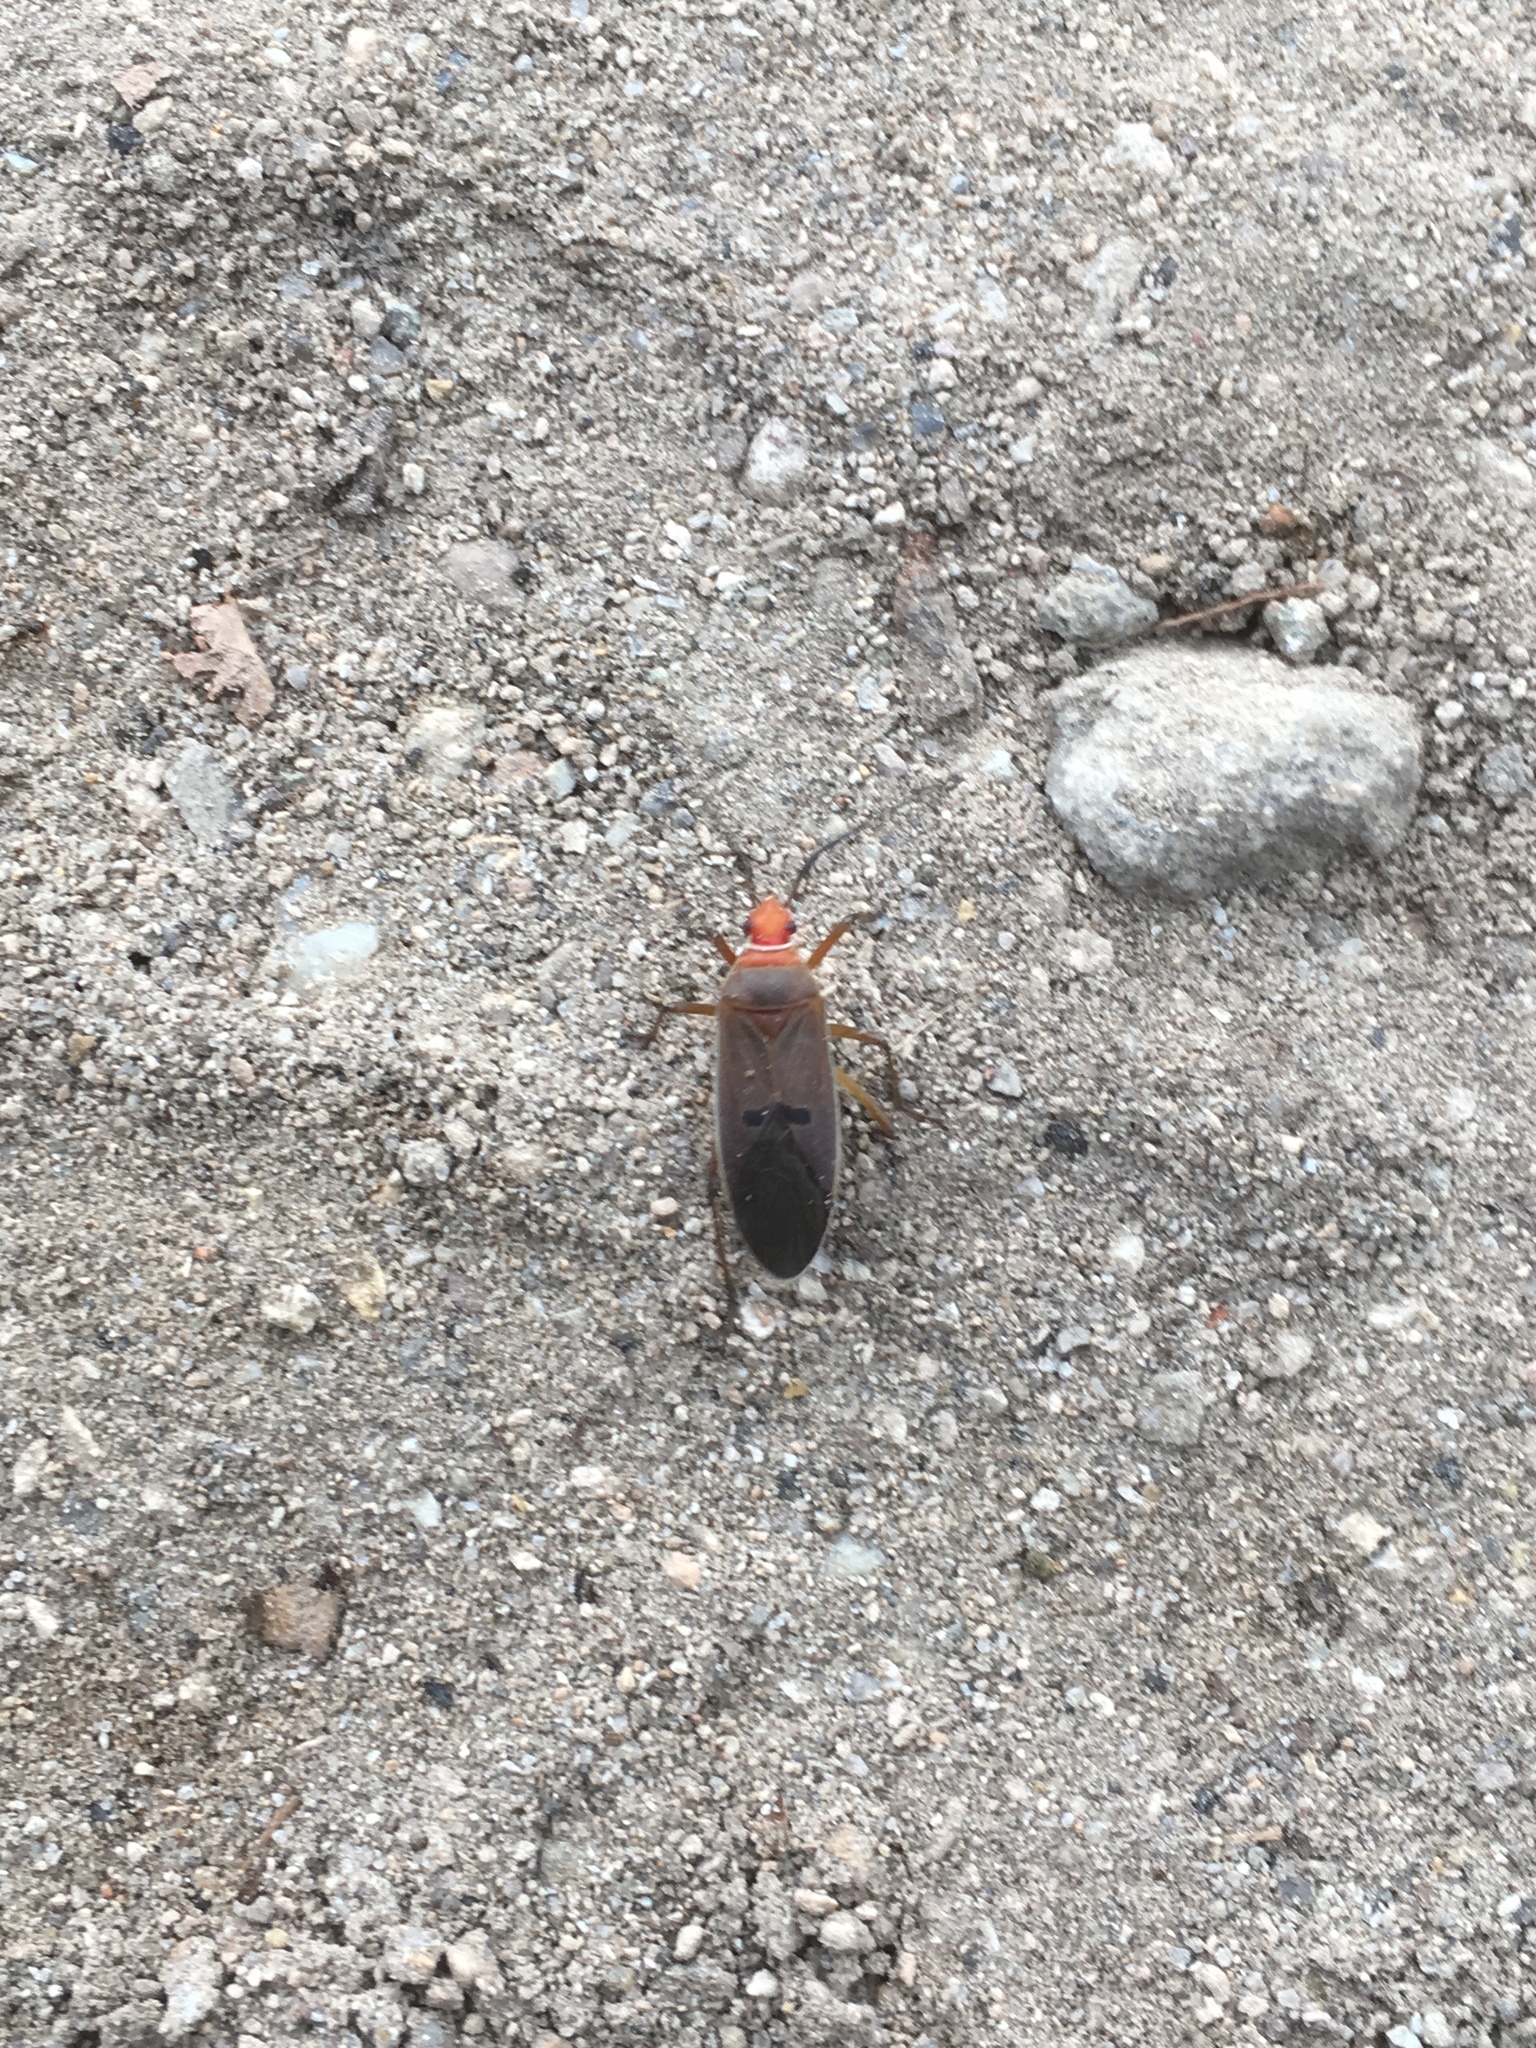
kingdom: Animalia
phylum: Arthropoda
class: Insecta
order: Hemiptera
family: Pyrrhocoridae
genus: Dysdercus
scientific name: Dysdercus bimaculatus
